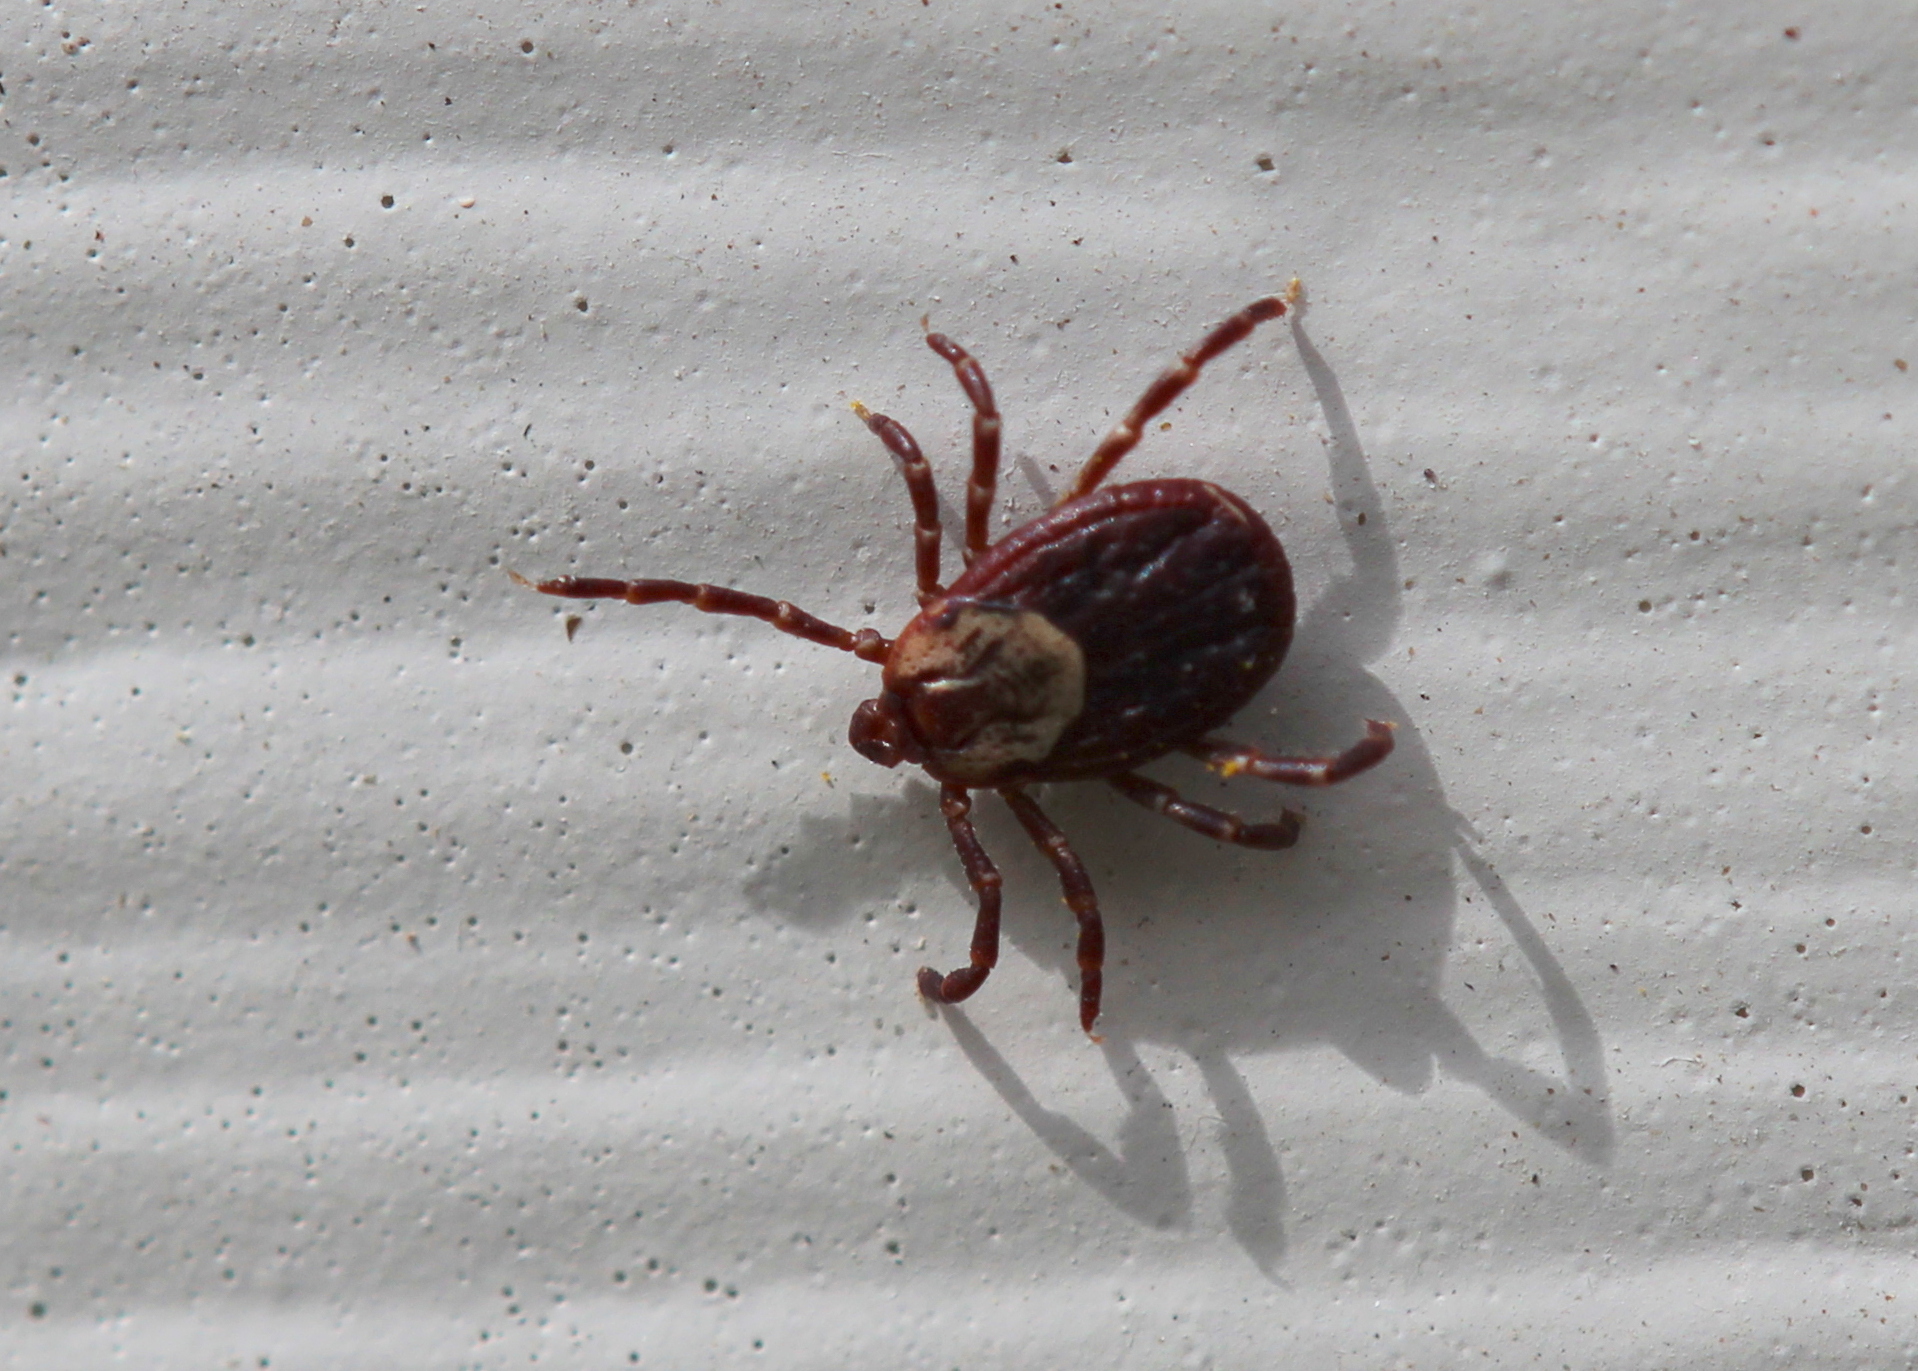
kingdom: Animalia
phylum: Arthropoda
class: Arachnida
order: Ixodida
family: Ixodidae
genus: Dermacentor
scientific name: Dermacentor variabilis
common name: American dog tick
